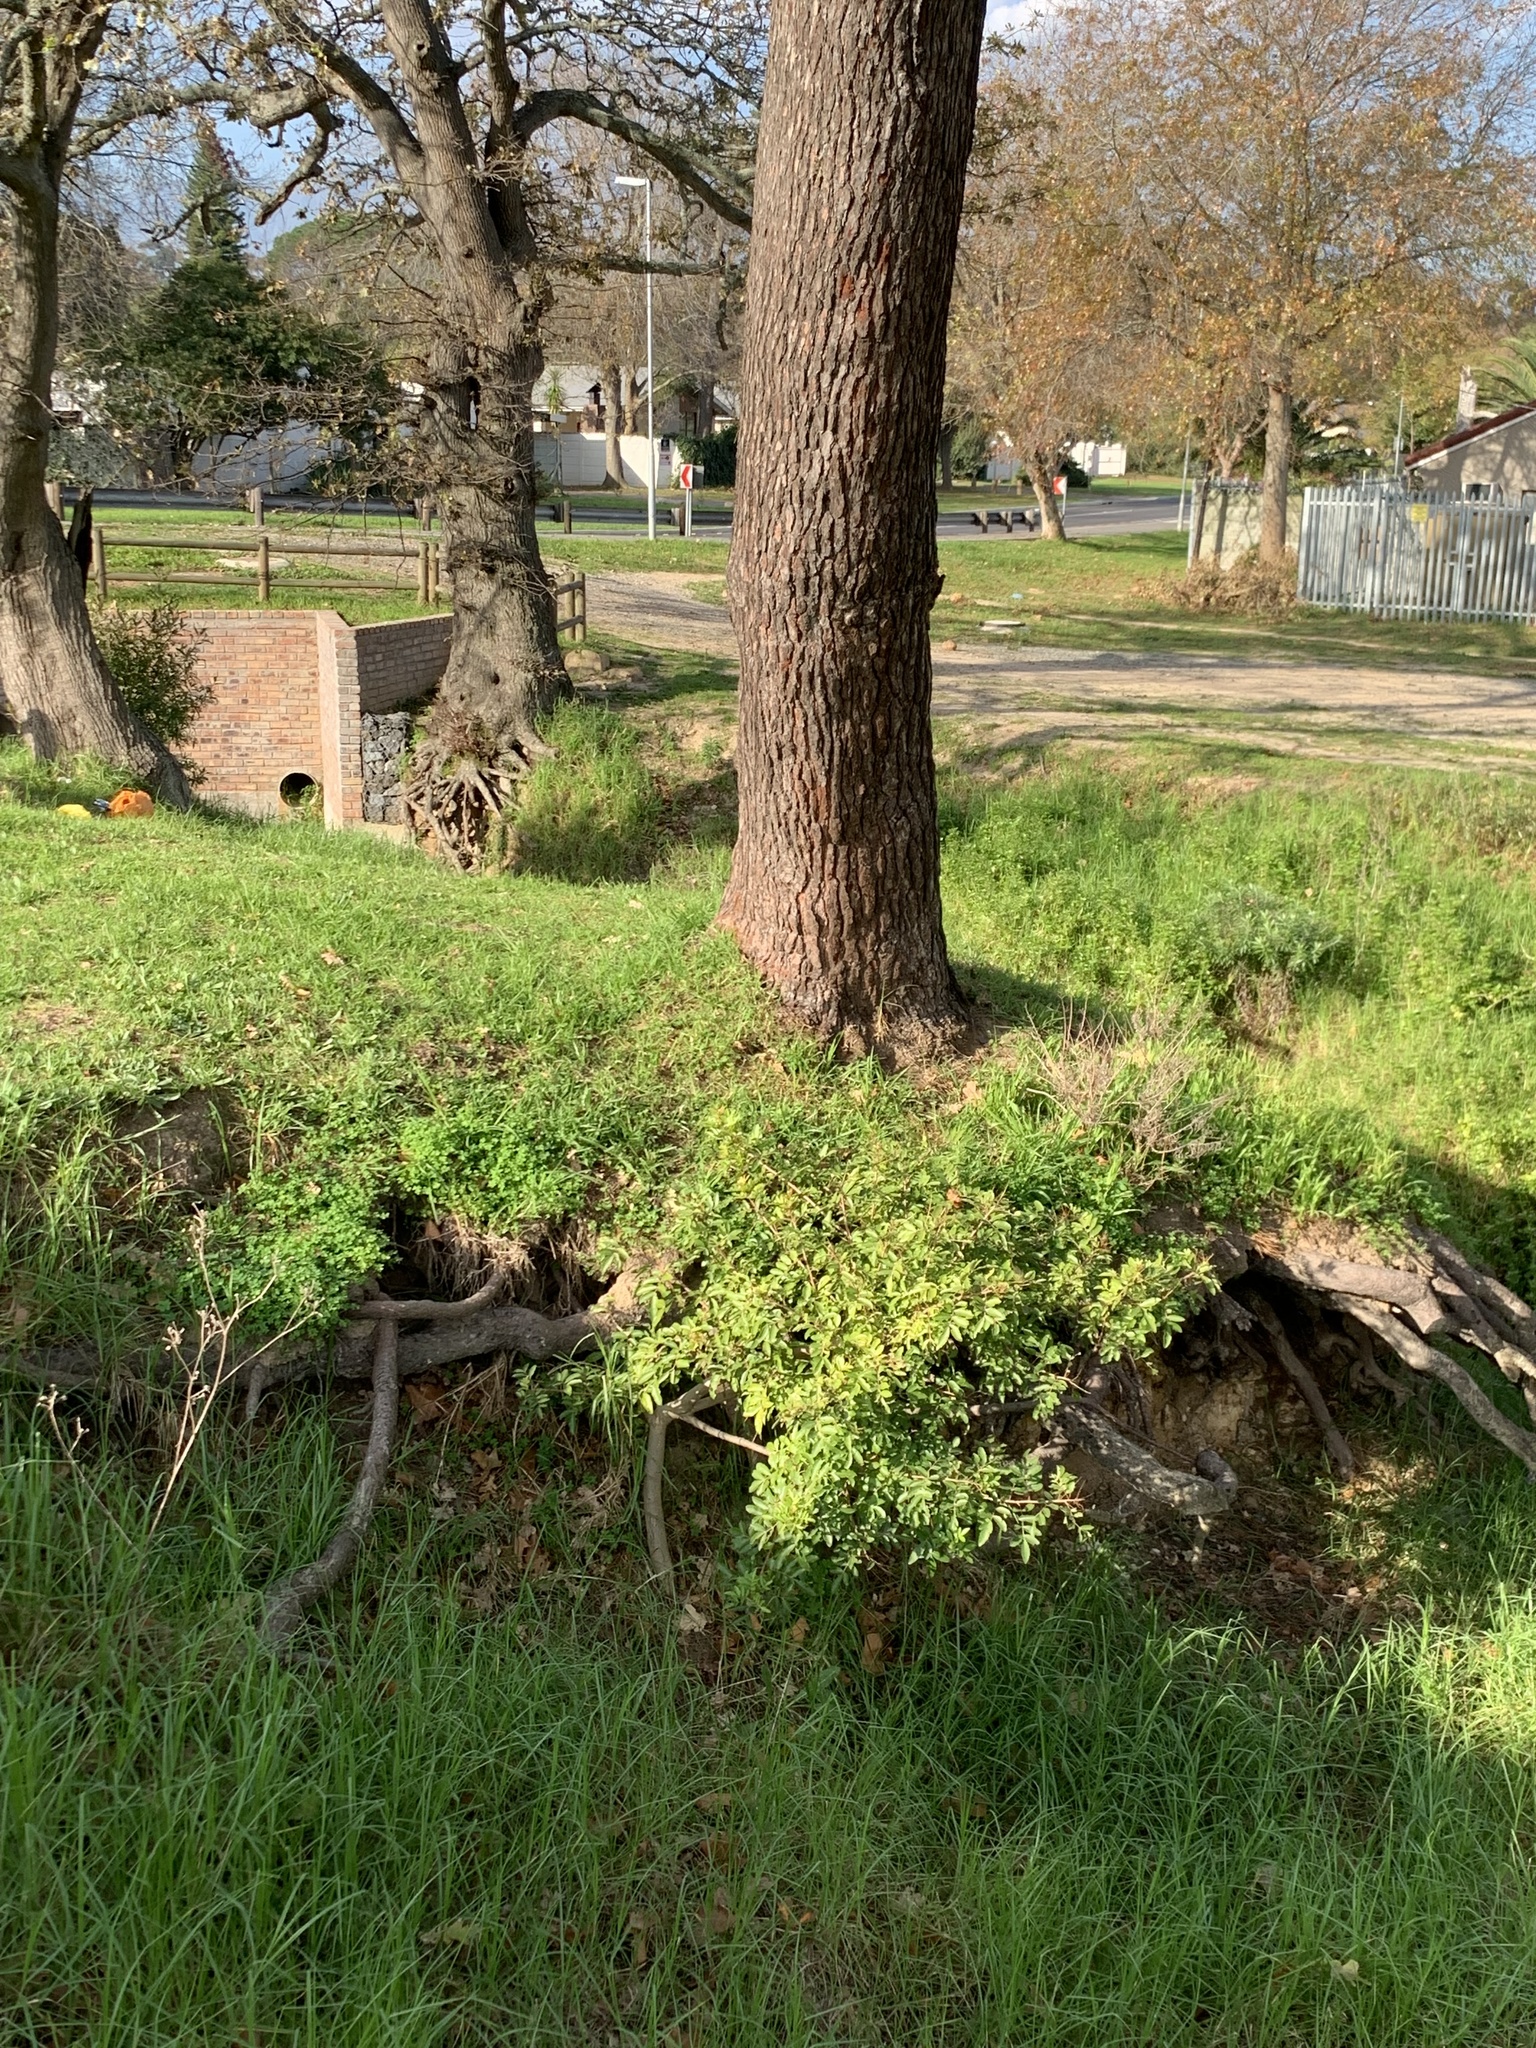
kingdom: Plantae
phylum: Tracheophyta
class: Magnoliopsida
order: Sapindales
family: Anacardiaceae
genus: Schinus
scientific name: Schinus terebinthifolia
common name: Brazilian peppertree
